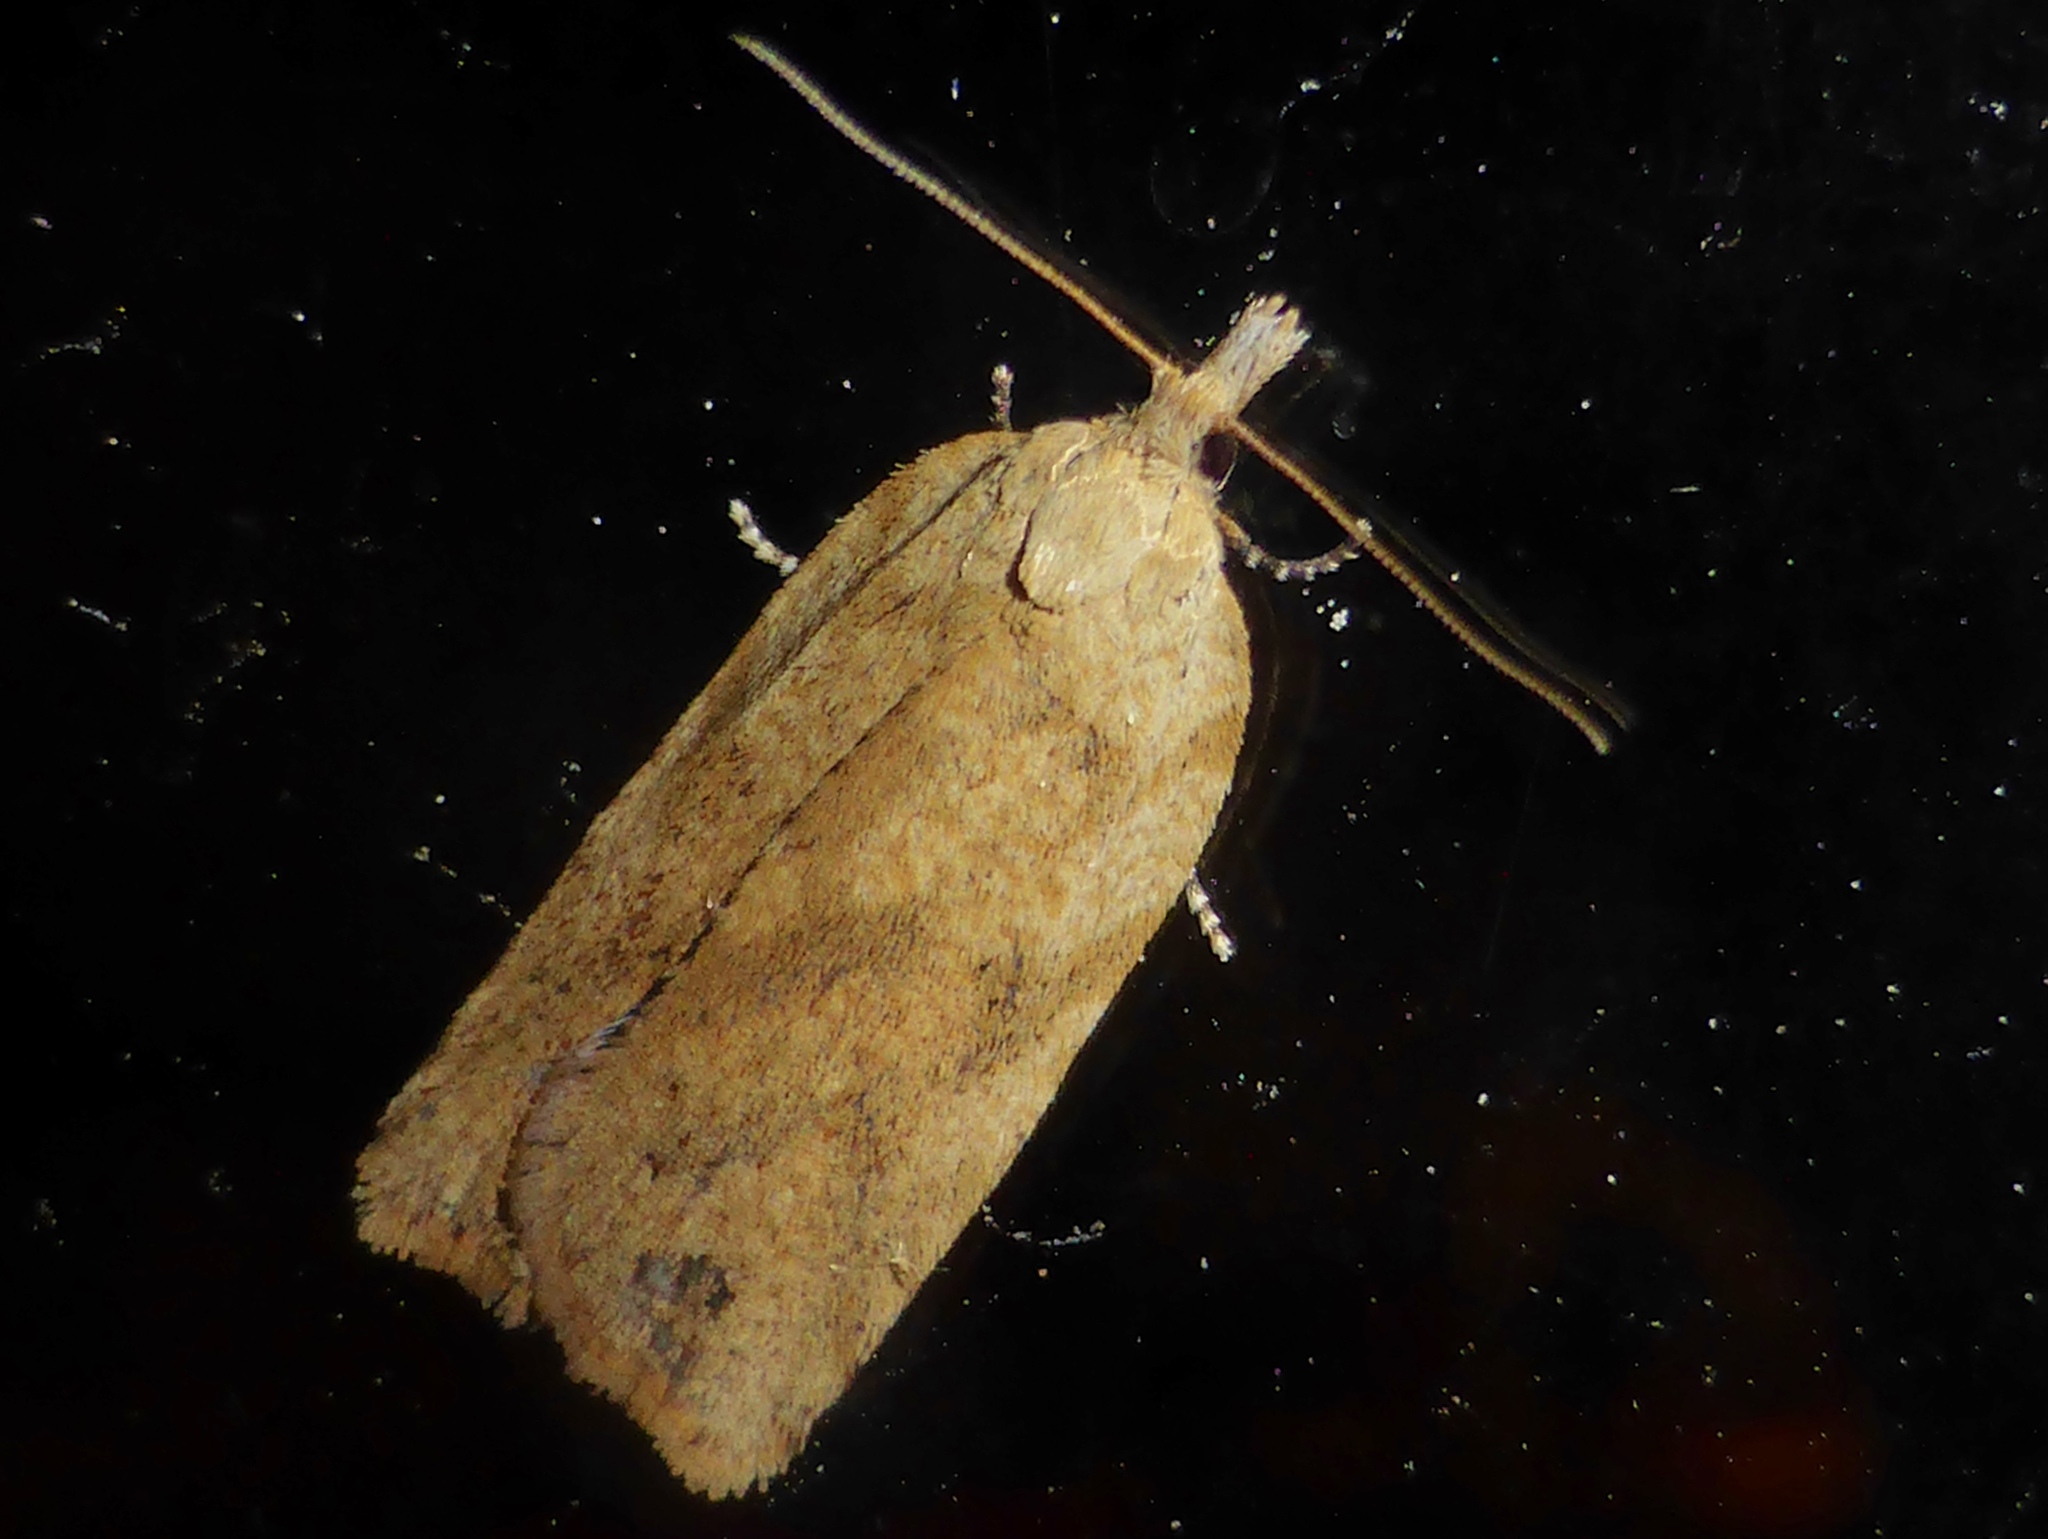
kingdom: Animalia
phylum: Arthropoda
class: Insecta
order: Lepidoptera
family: Tortricidae
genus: Epiphyas
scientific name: Epiphyas postvittana
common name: Light brown apple moth
